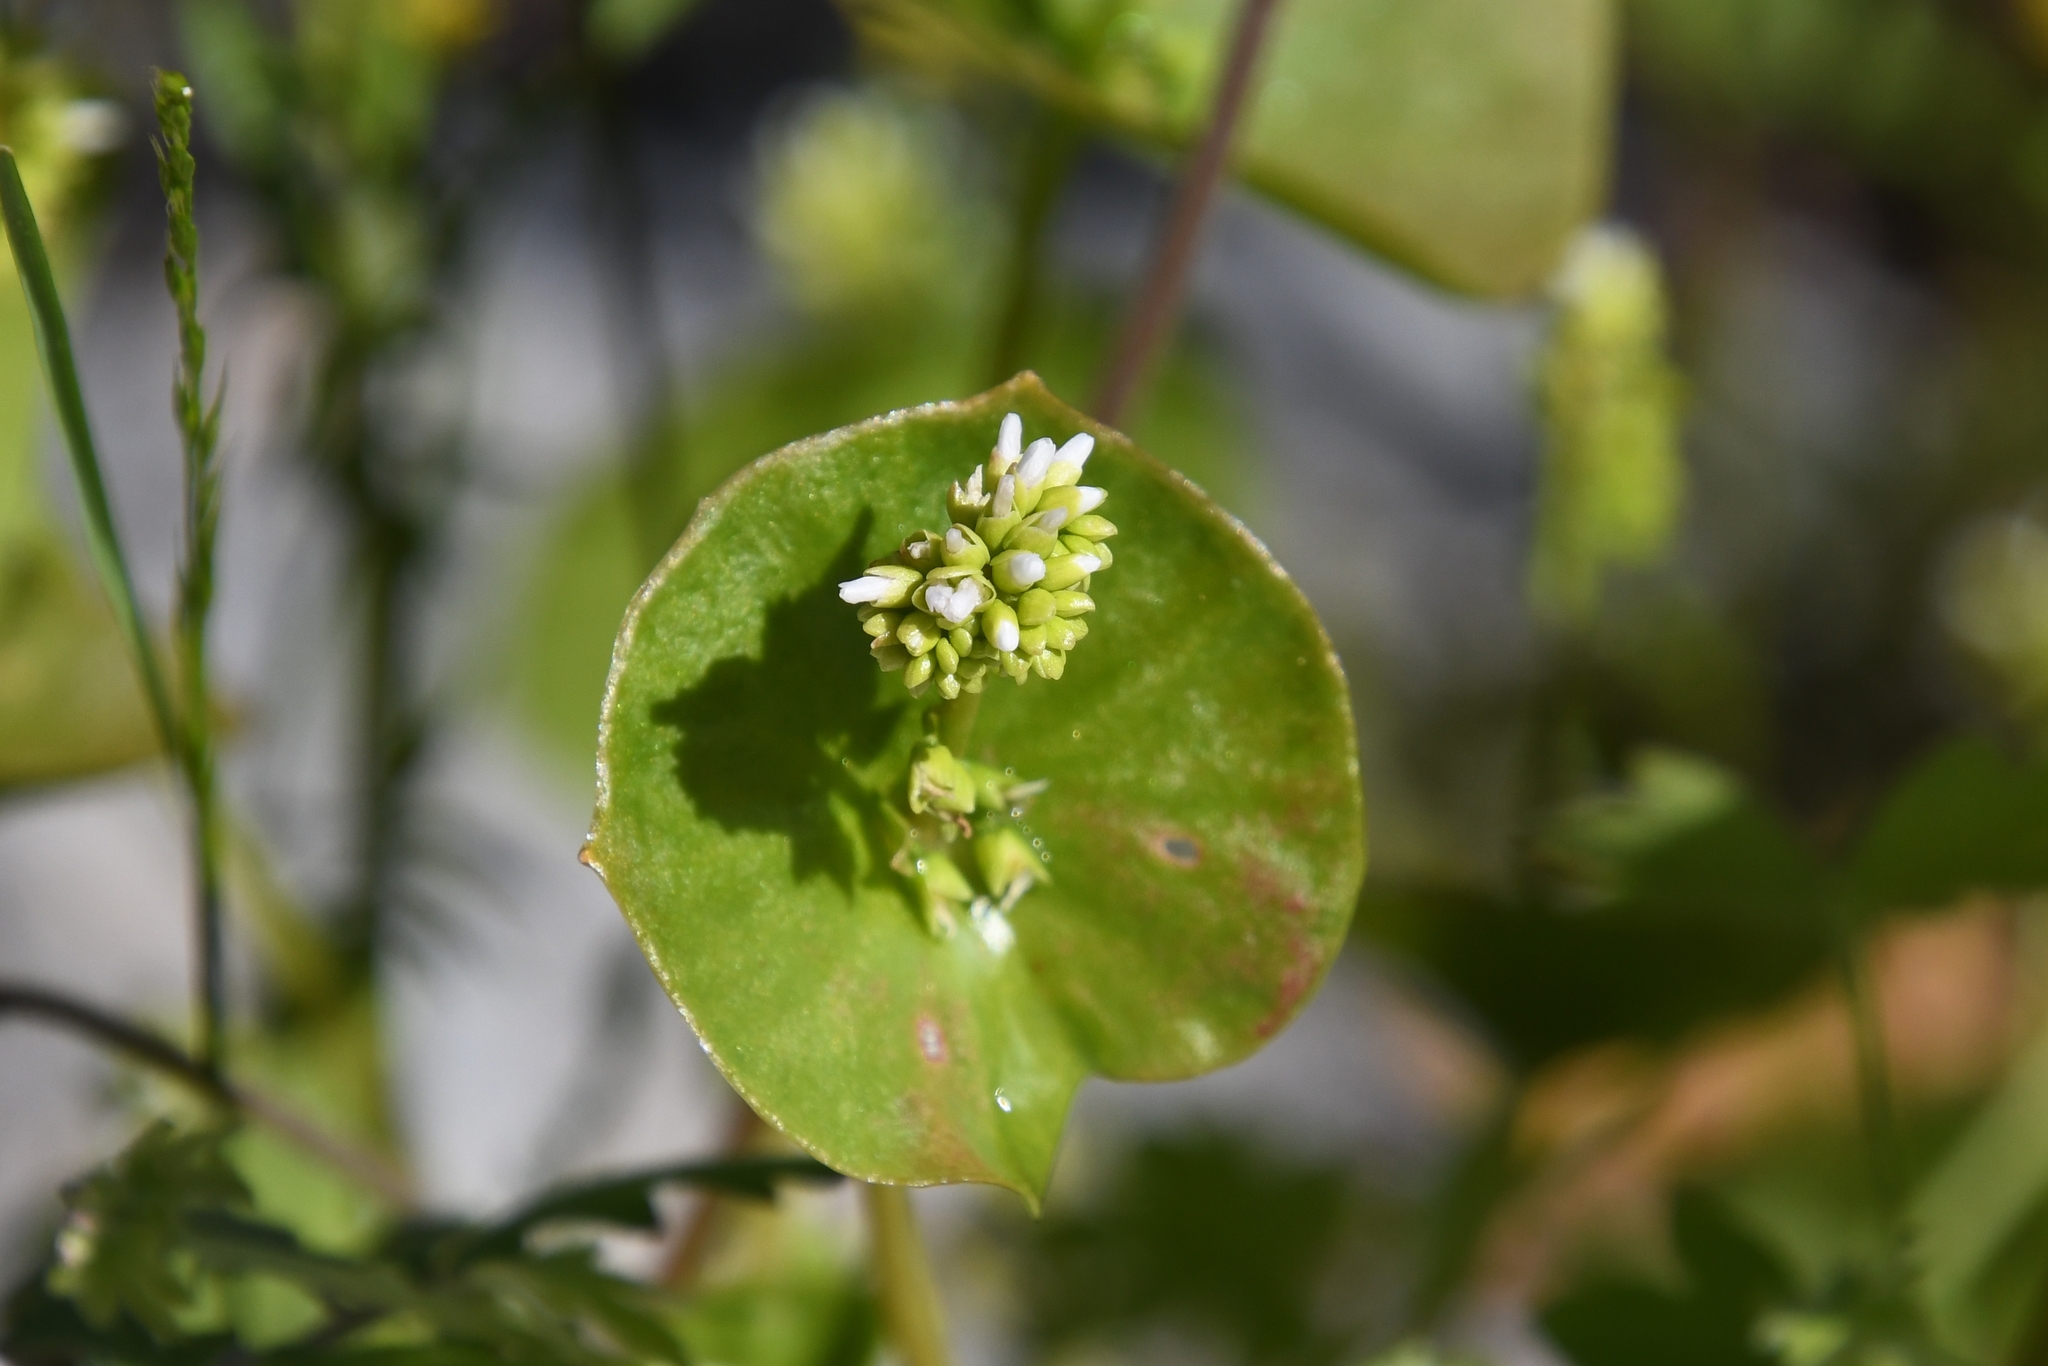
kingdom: Plantae
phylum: Tracheophyta
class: Magnoliopsida
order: Caryophyllales
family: Montiaceae
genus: Claytonia
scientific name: Claytonia perfoliata
